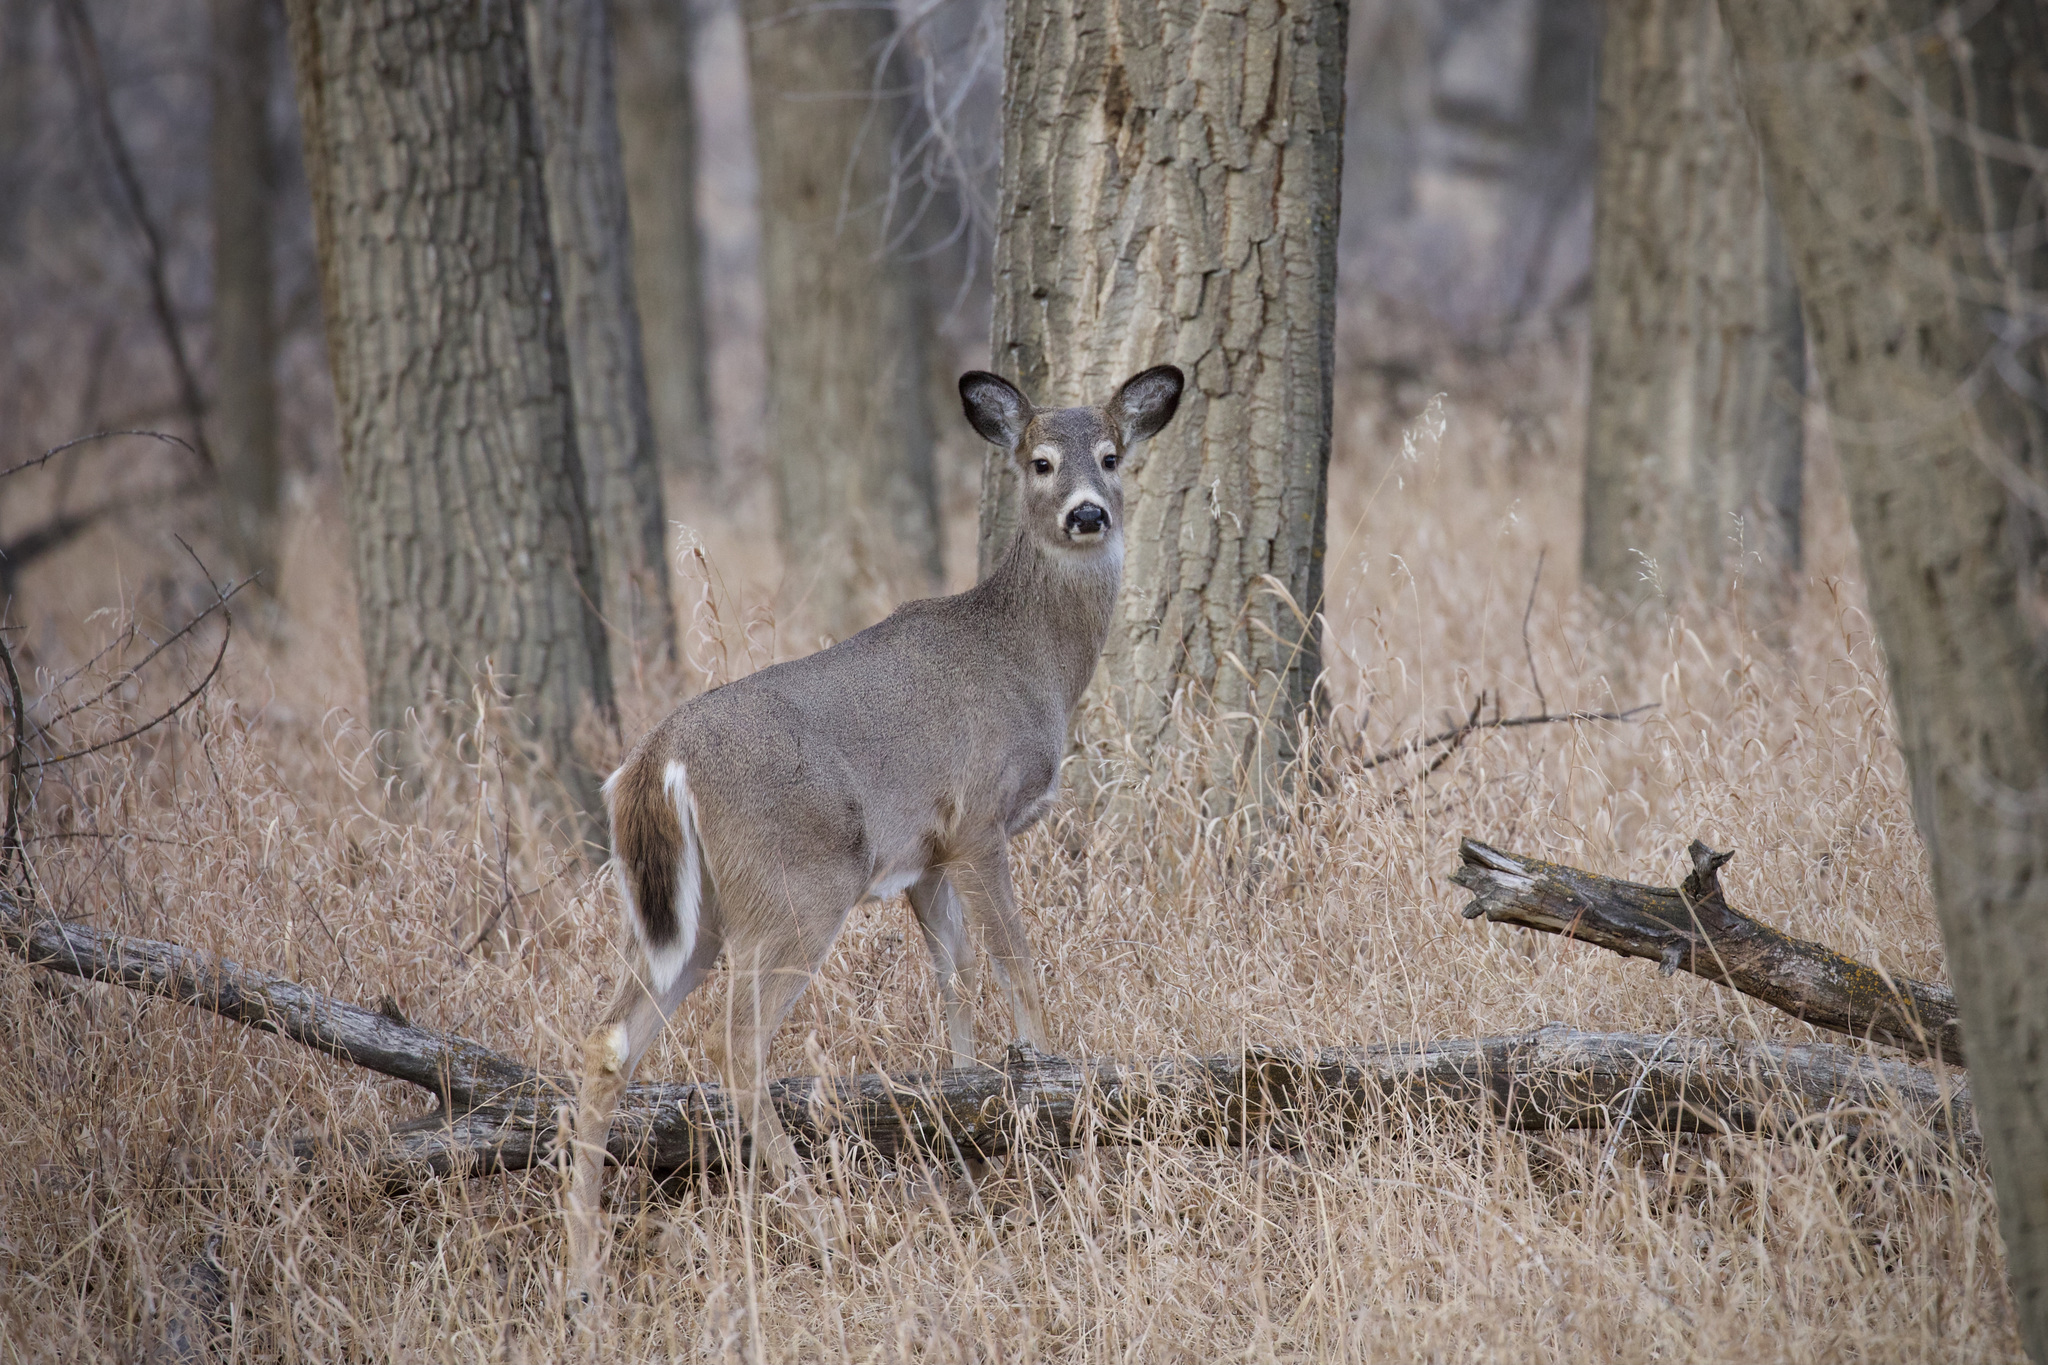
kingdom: Animalia
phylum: Chordata
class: Mammalia
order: Artiodactyla
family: Cervidae
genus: Odocoileus
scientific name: Odocoileus virginianus
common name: White-tailed deer
